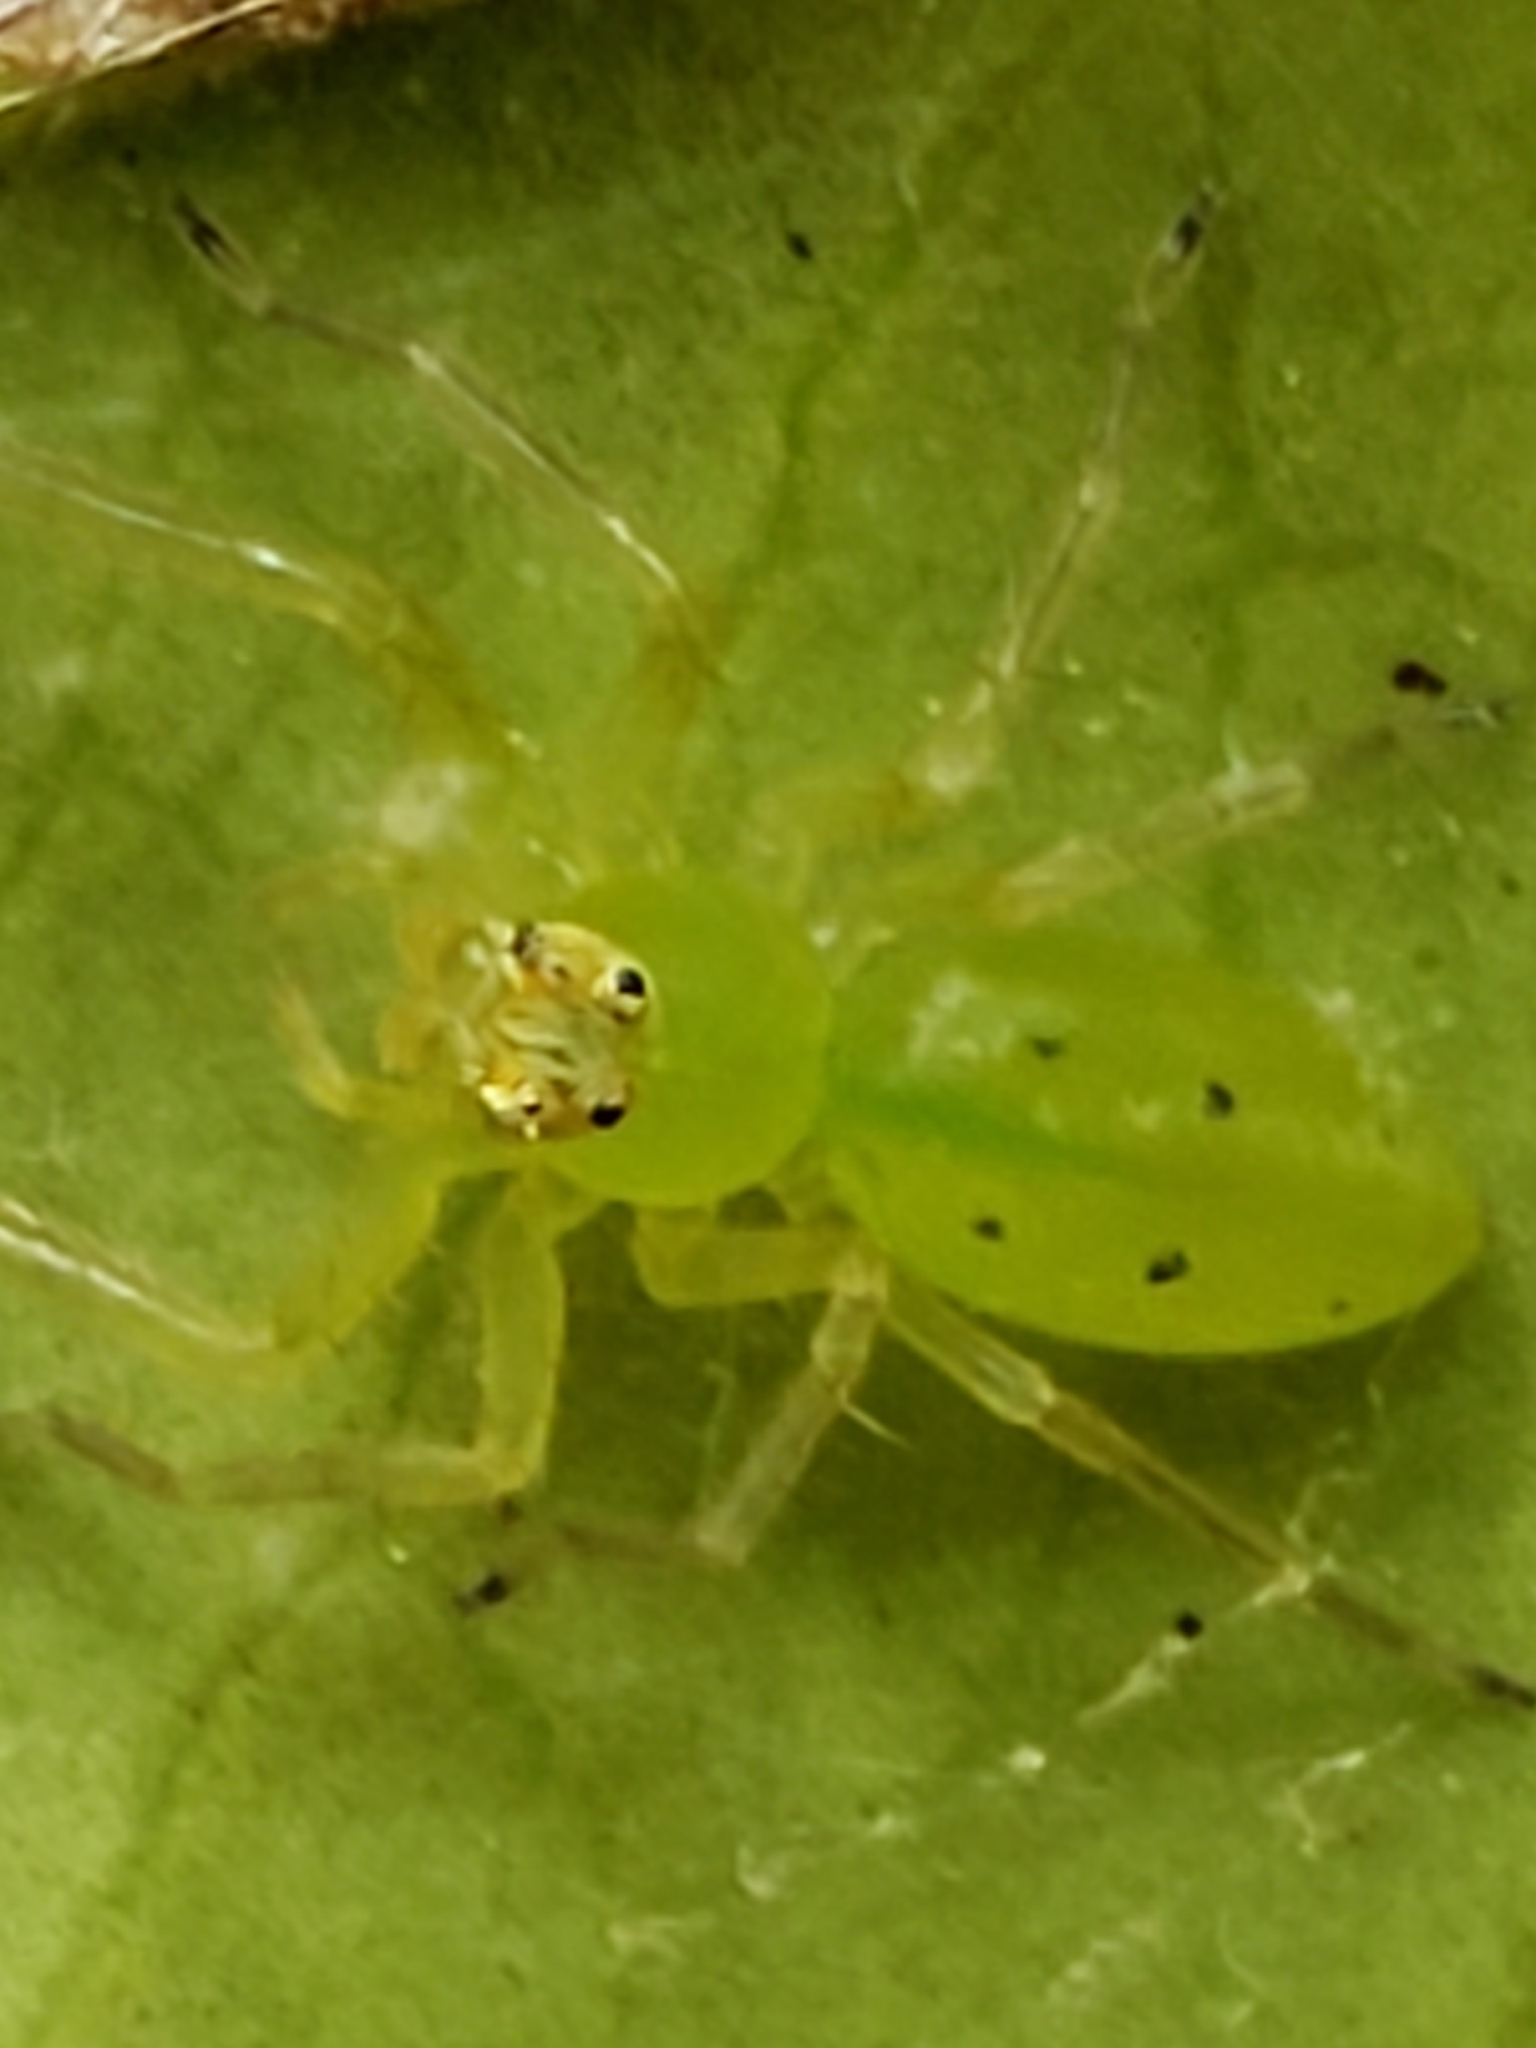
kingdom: Animalia
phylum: Arthropoda
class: Arachnida
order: Araneae
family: Salticidae
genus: Lyssomanes
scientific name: Lyssomanes viridis
